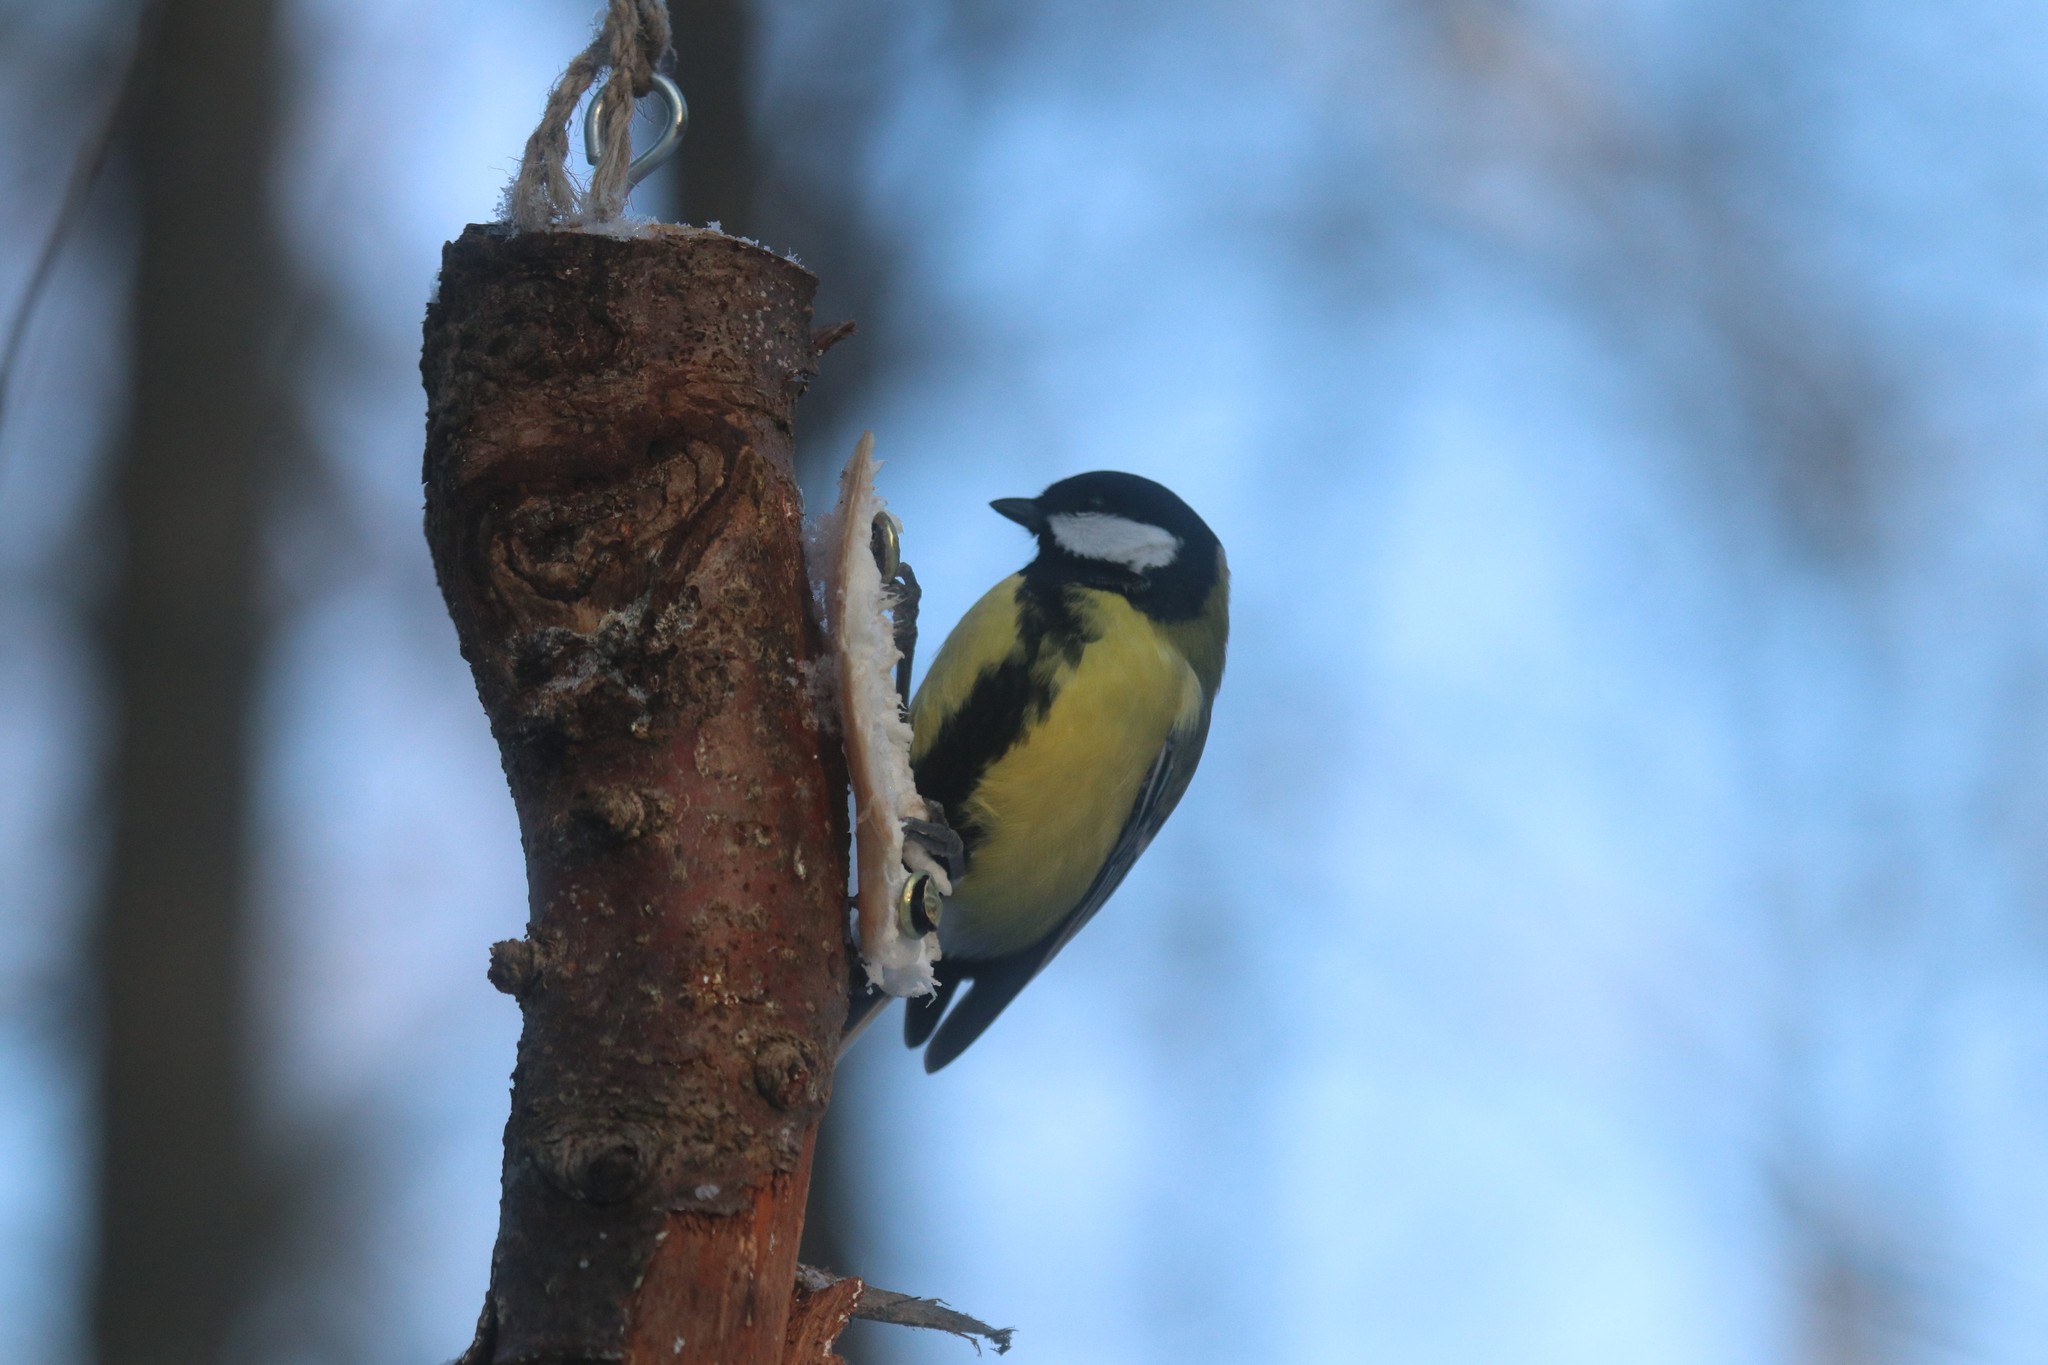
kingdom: Animalia
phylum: Chordata
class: Aves
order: Passeriformes
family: Paridae
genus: Parus
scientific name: Parus major
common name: Great tit
